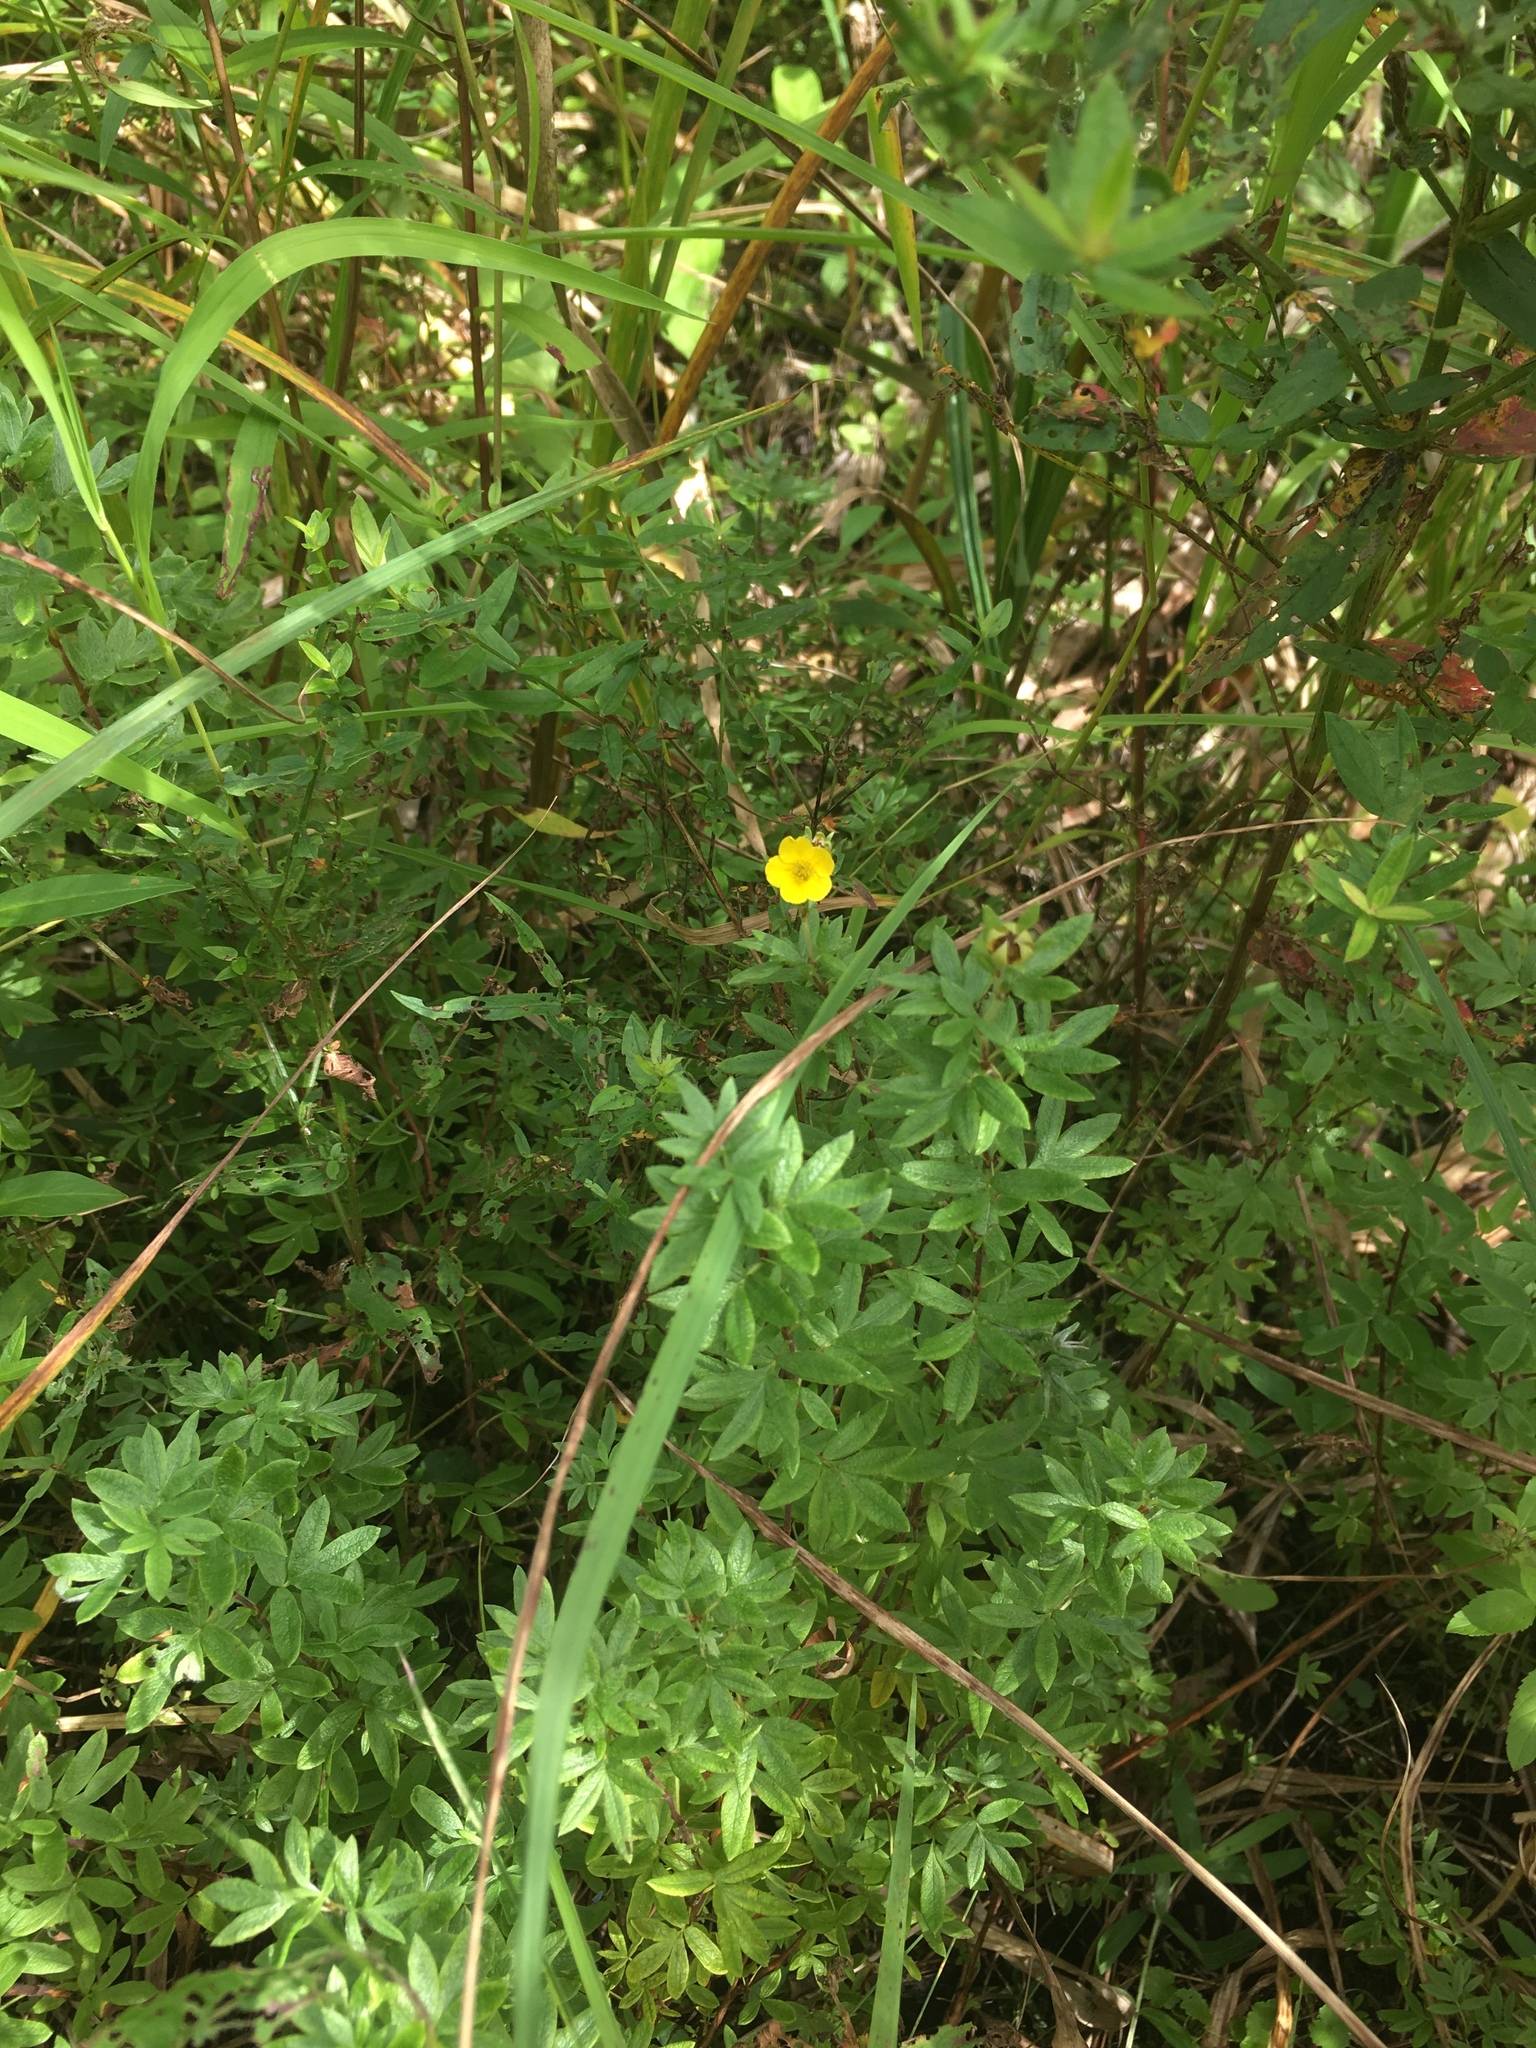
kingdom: Plantae
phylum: Tracheophyta
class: Magnoliopsida
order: Rosales
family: Rosaceae
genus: Dasiphora
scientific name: Dasiphora fruticosa
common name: Shrubby cinquefoil
